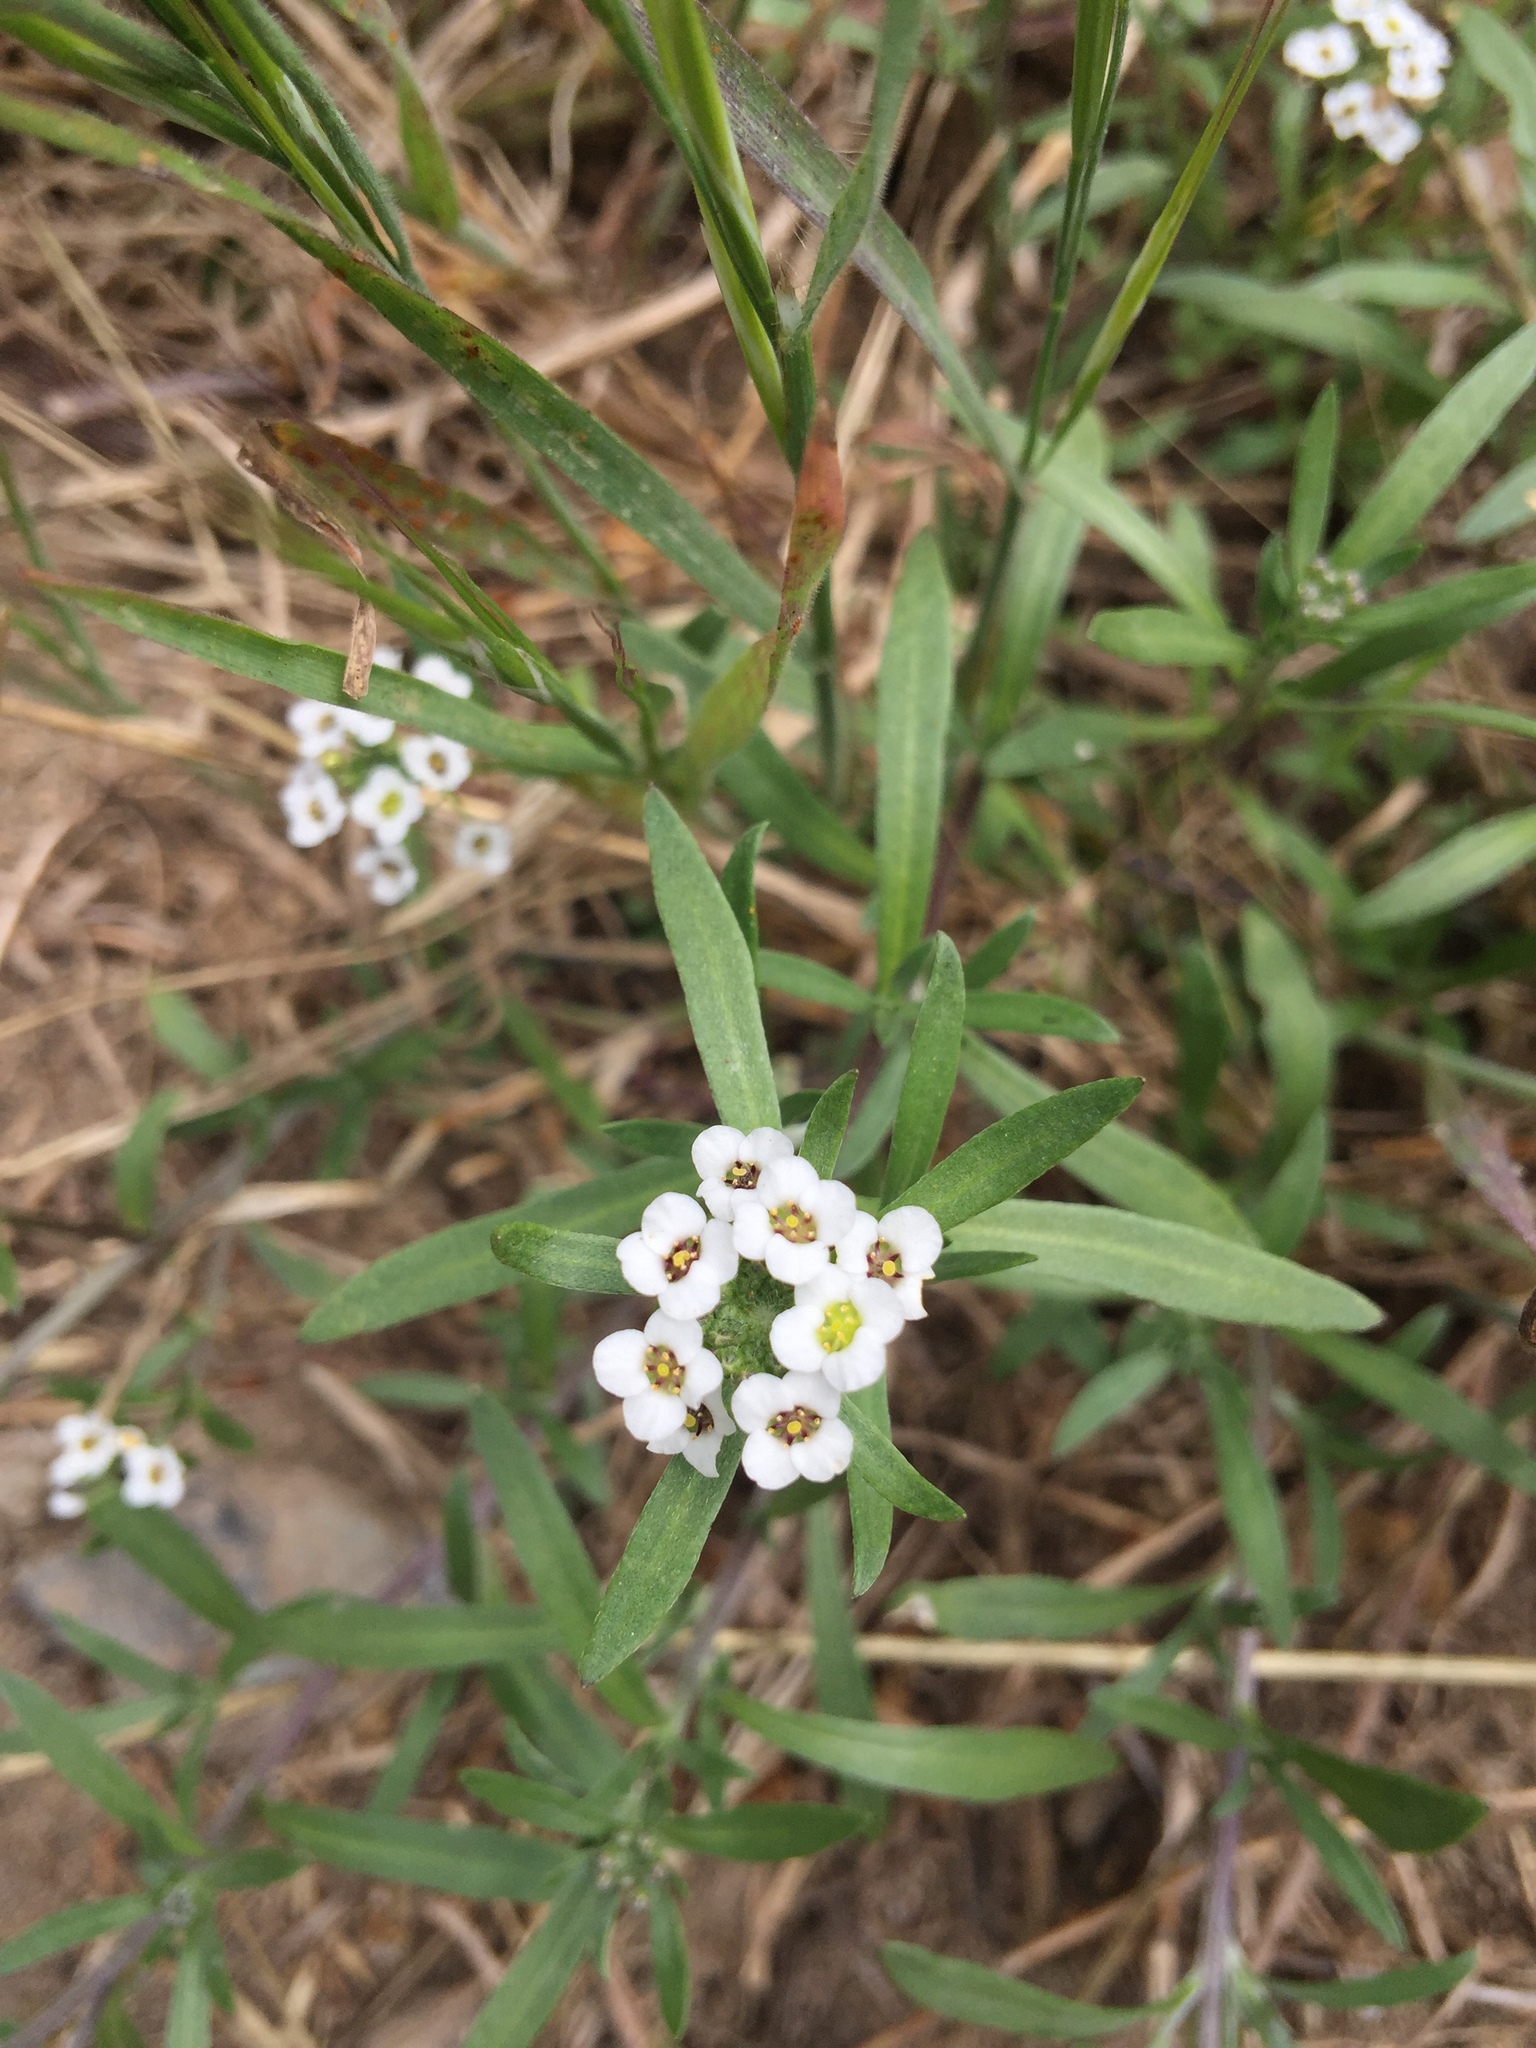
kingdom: Plantae
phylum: Tracheophyta
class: Magnoliopsida
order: Brassicales
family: Brassicaceae
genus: Lobularia
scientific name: Lobularia maritima
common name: Sweet alison
